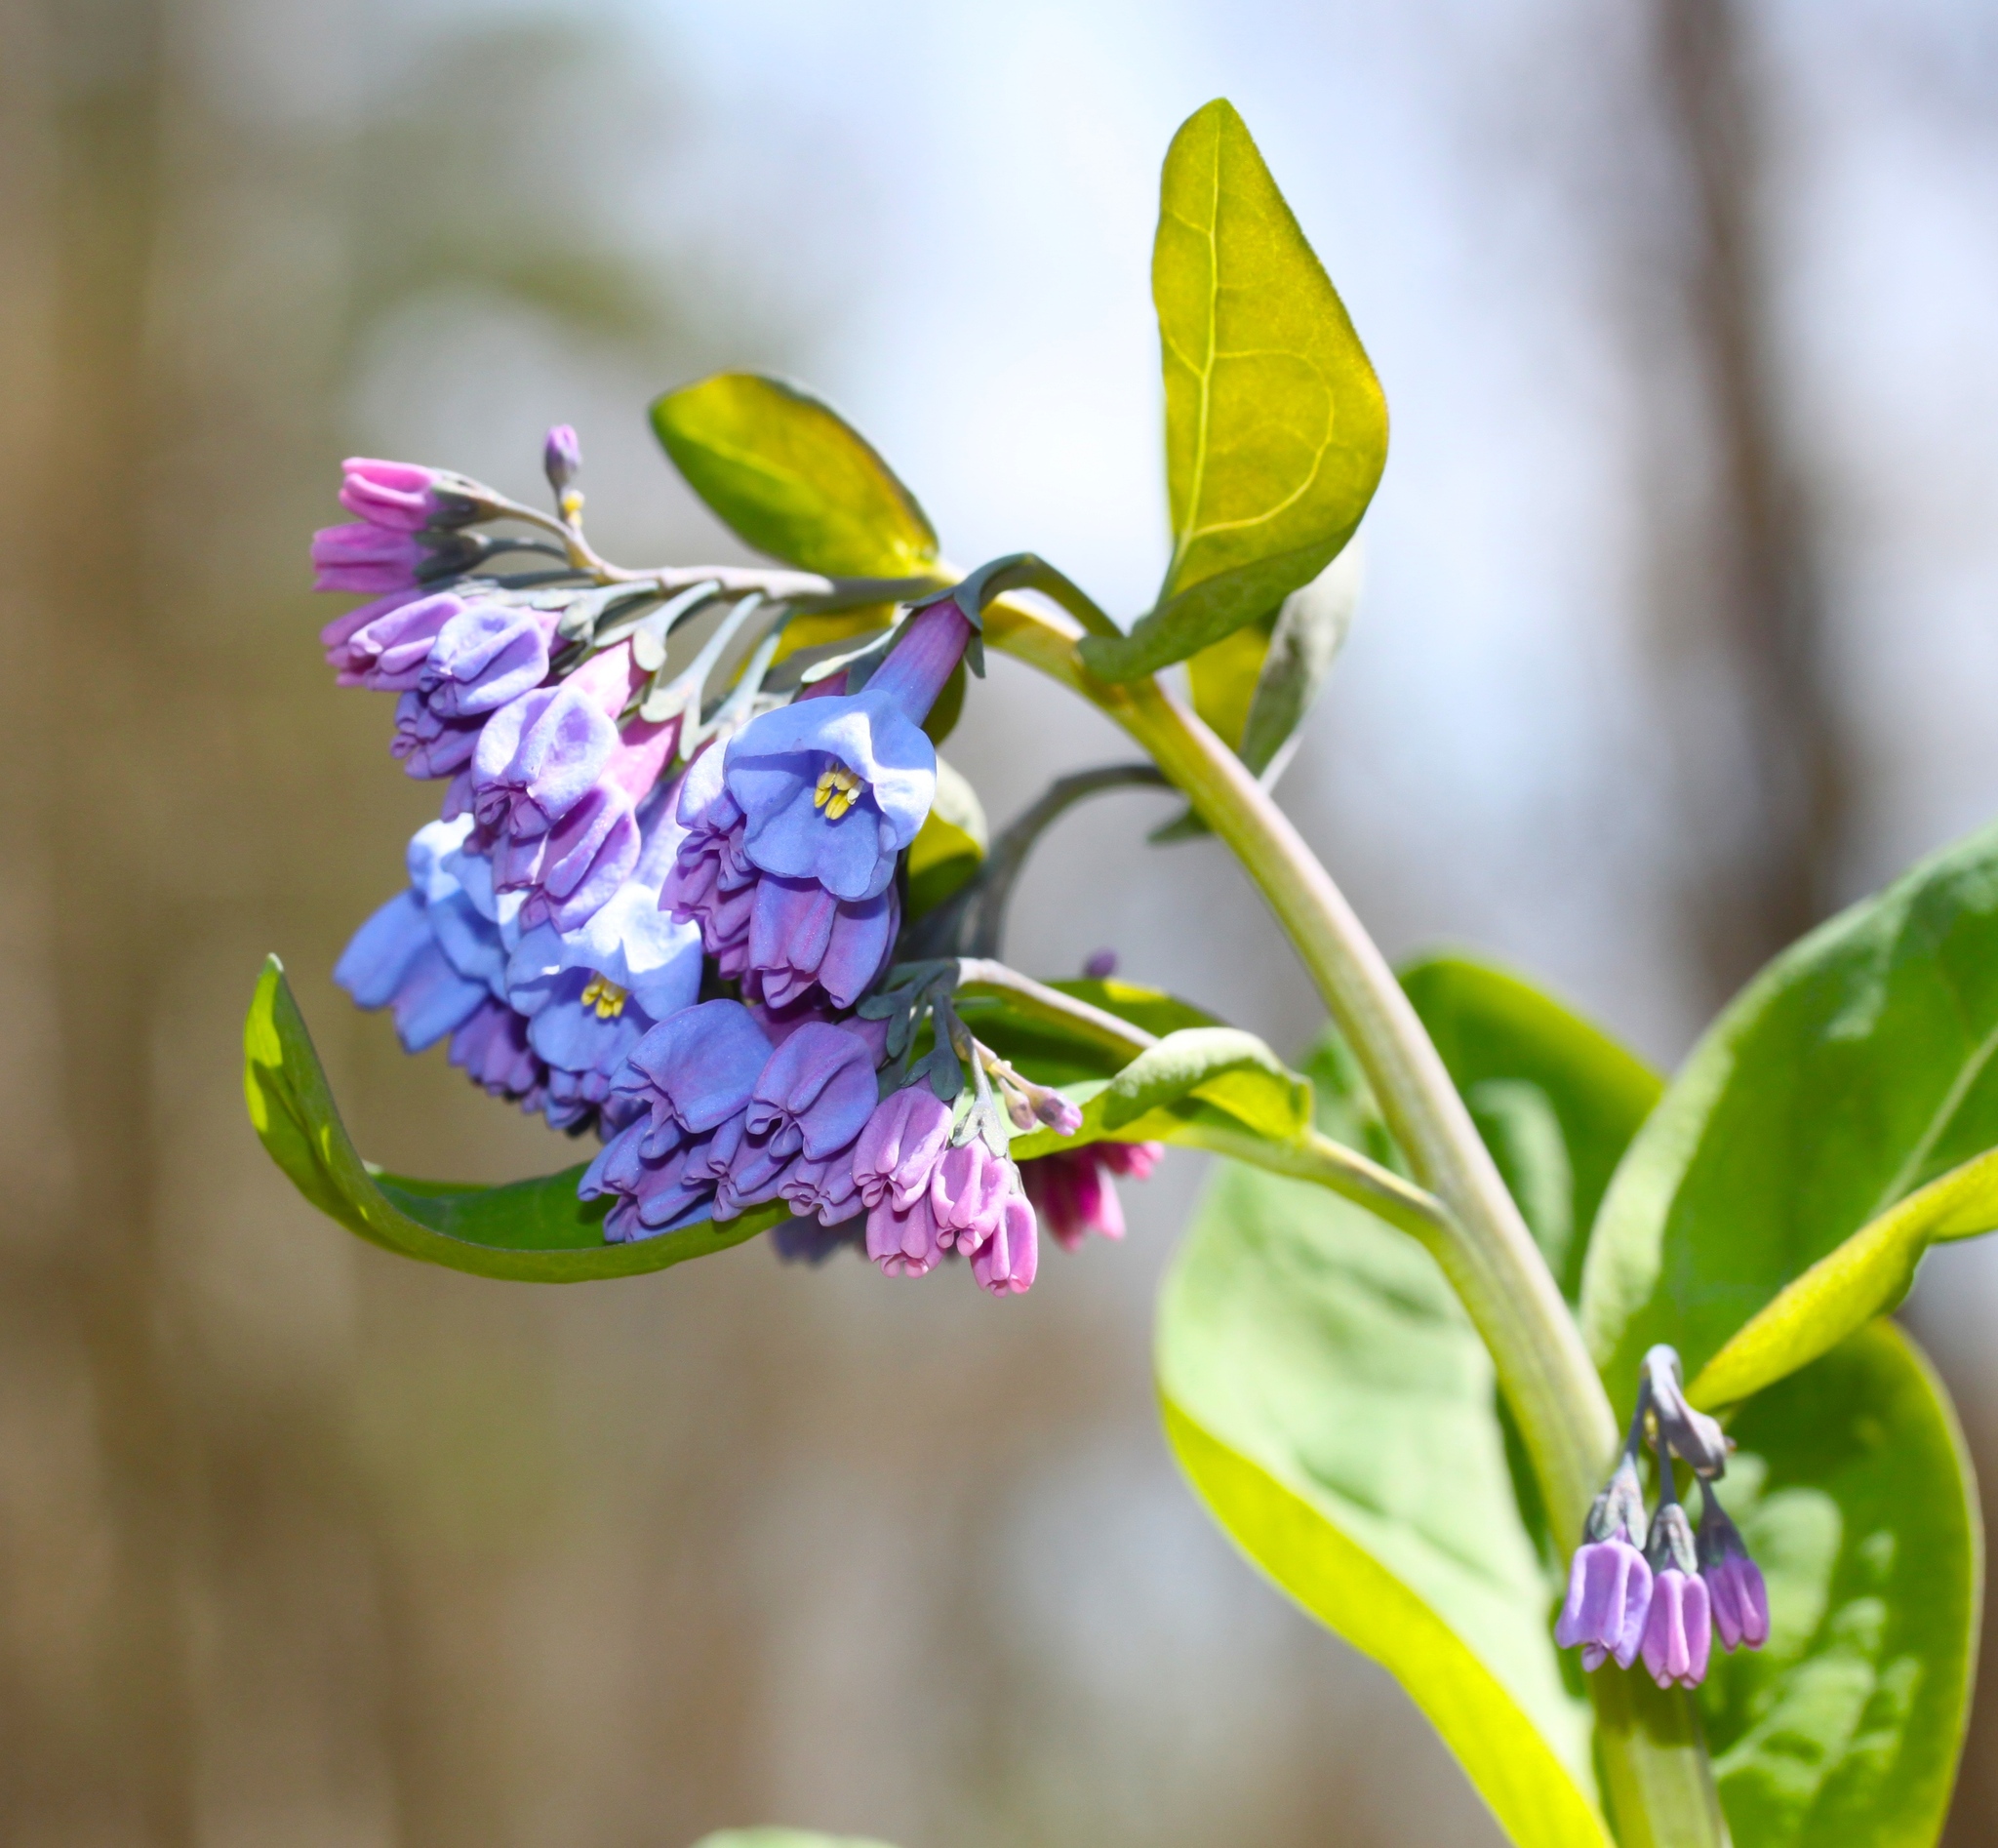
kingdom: Plantae
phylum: Tracheophyta
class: Magnoliopsida
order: Boraginales
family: Boraginaceae
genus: Mertensia
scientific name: Mertensia virginica
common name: Virginia bluebells
